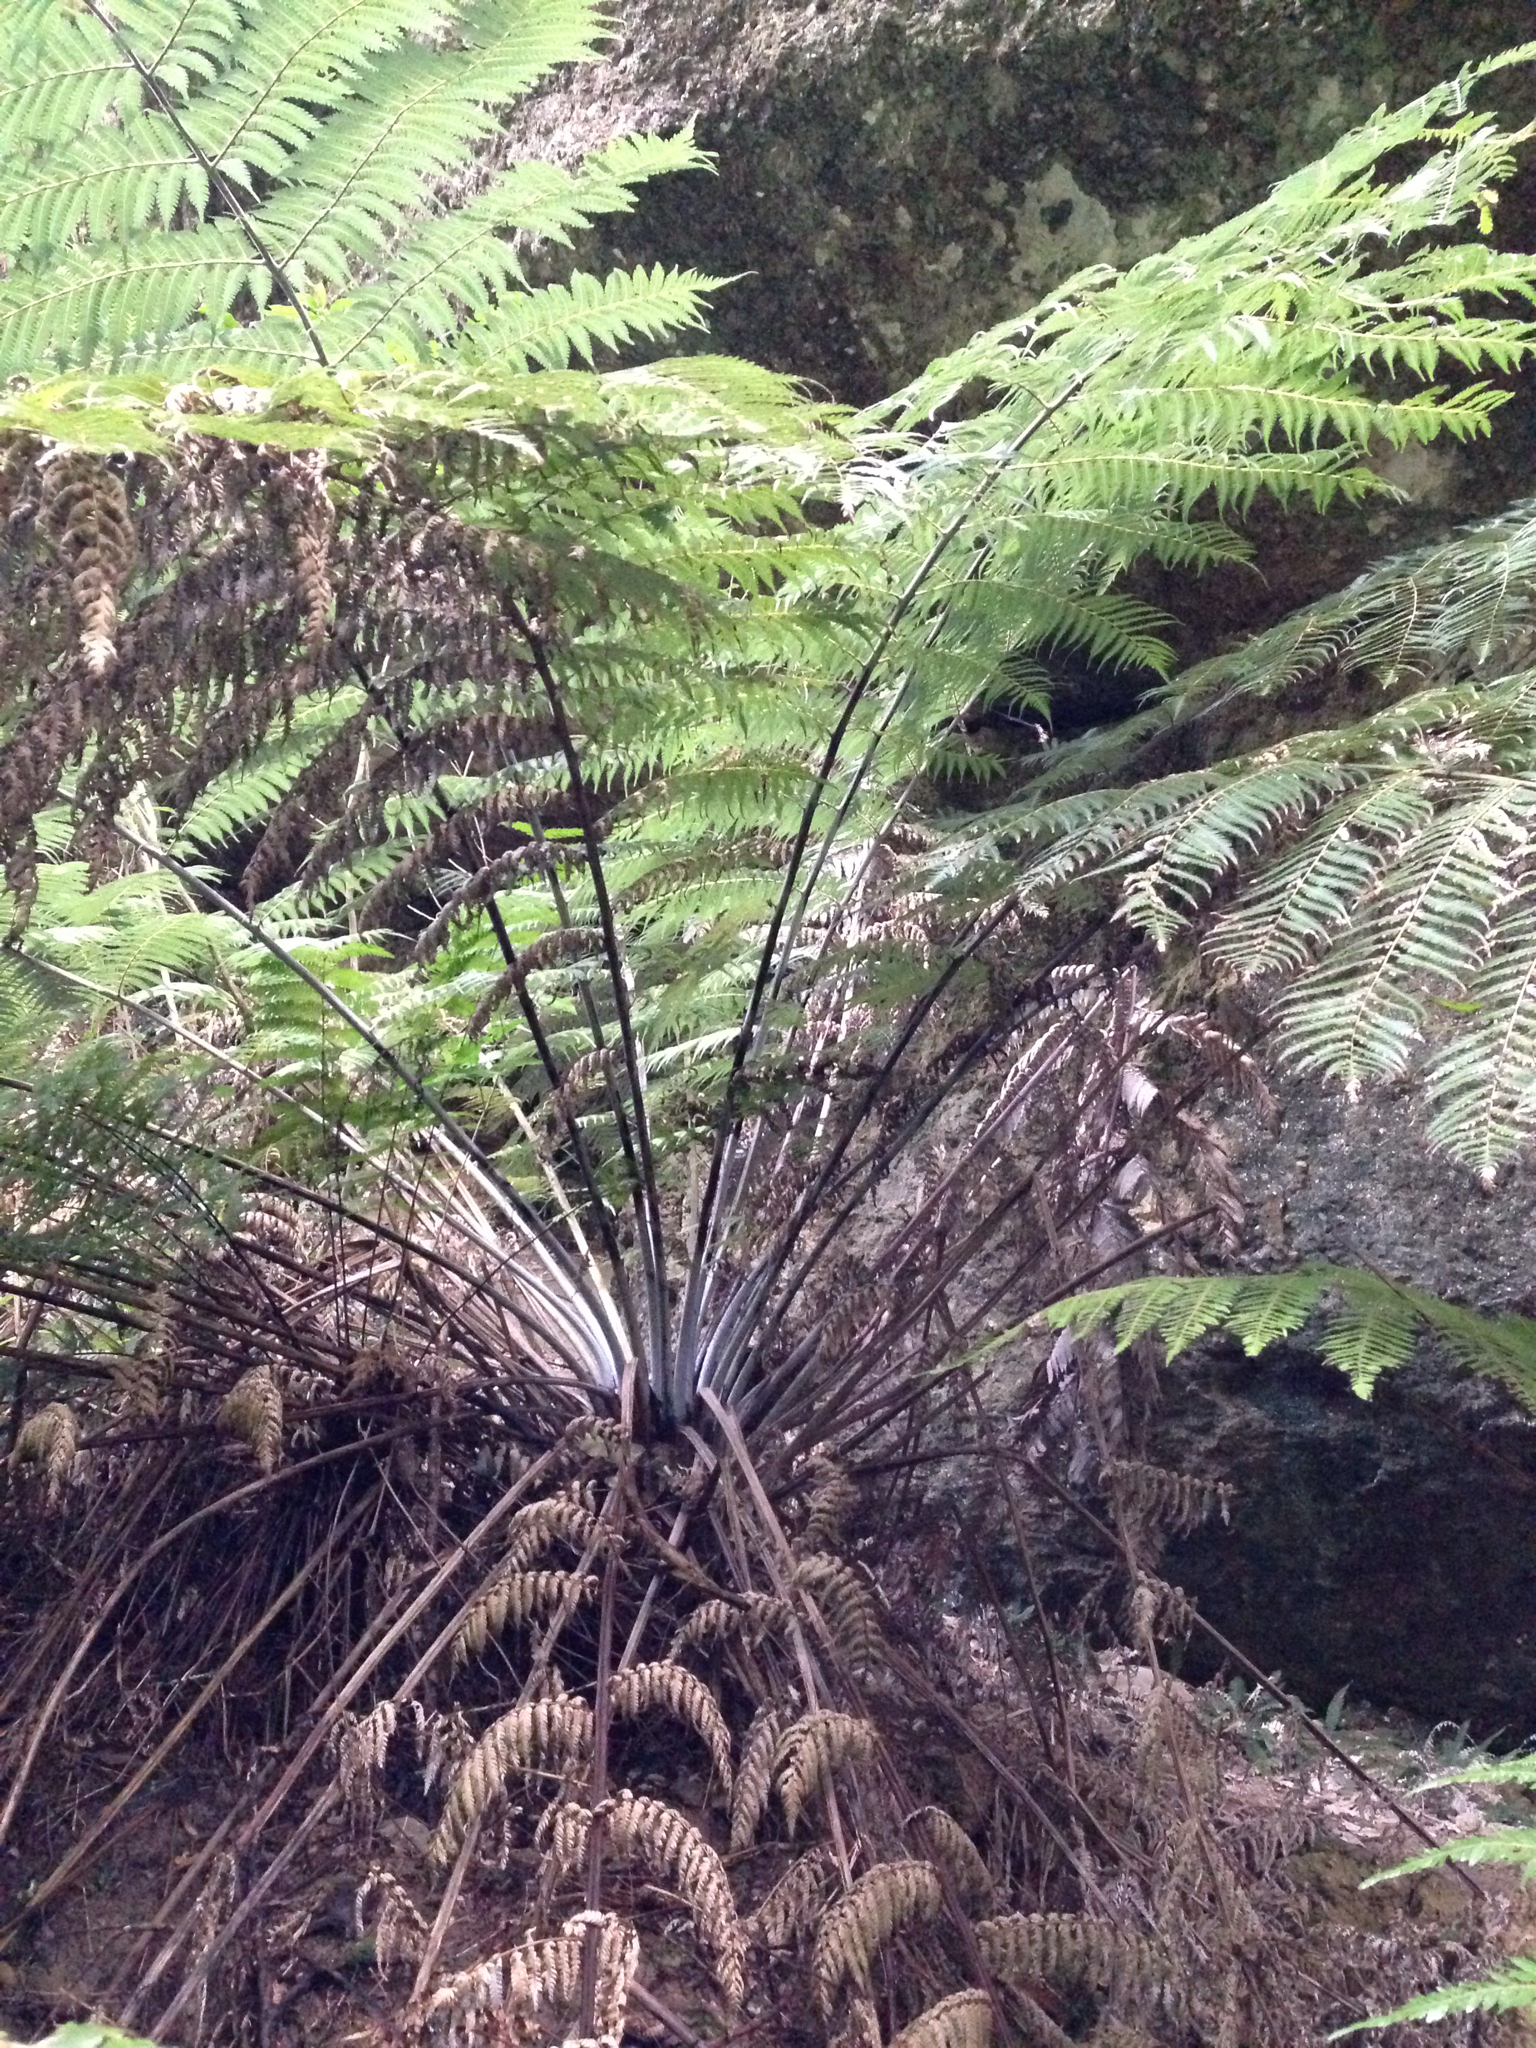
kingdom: Plantae
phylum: Tracheophyta
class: Polypodiopsida
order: Cyatheales
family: Cyatheaceae
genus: Alsophila
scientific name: Alsophila dealbata
